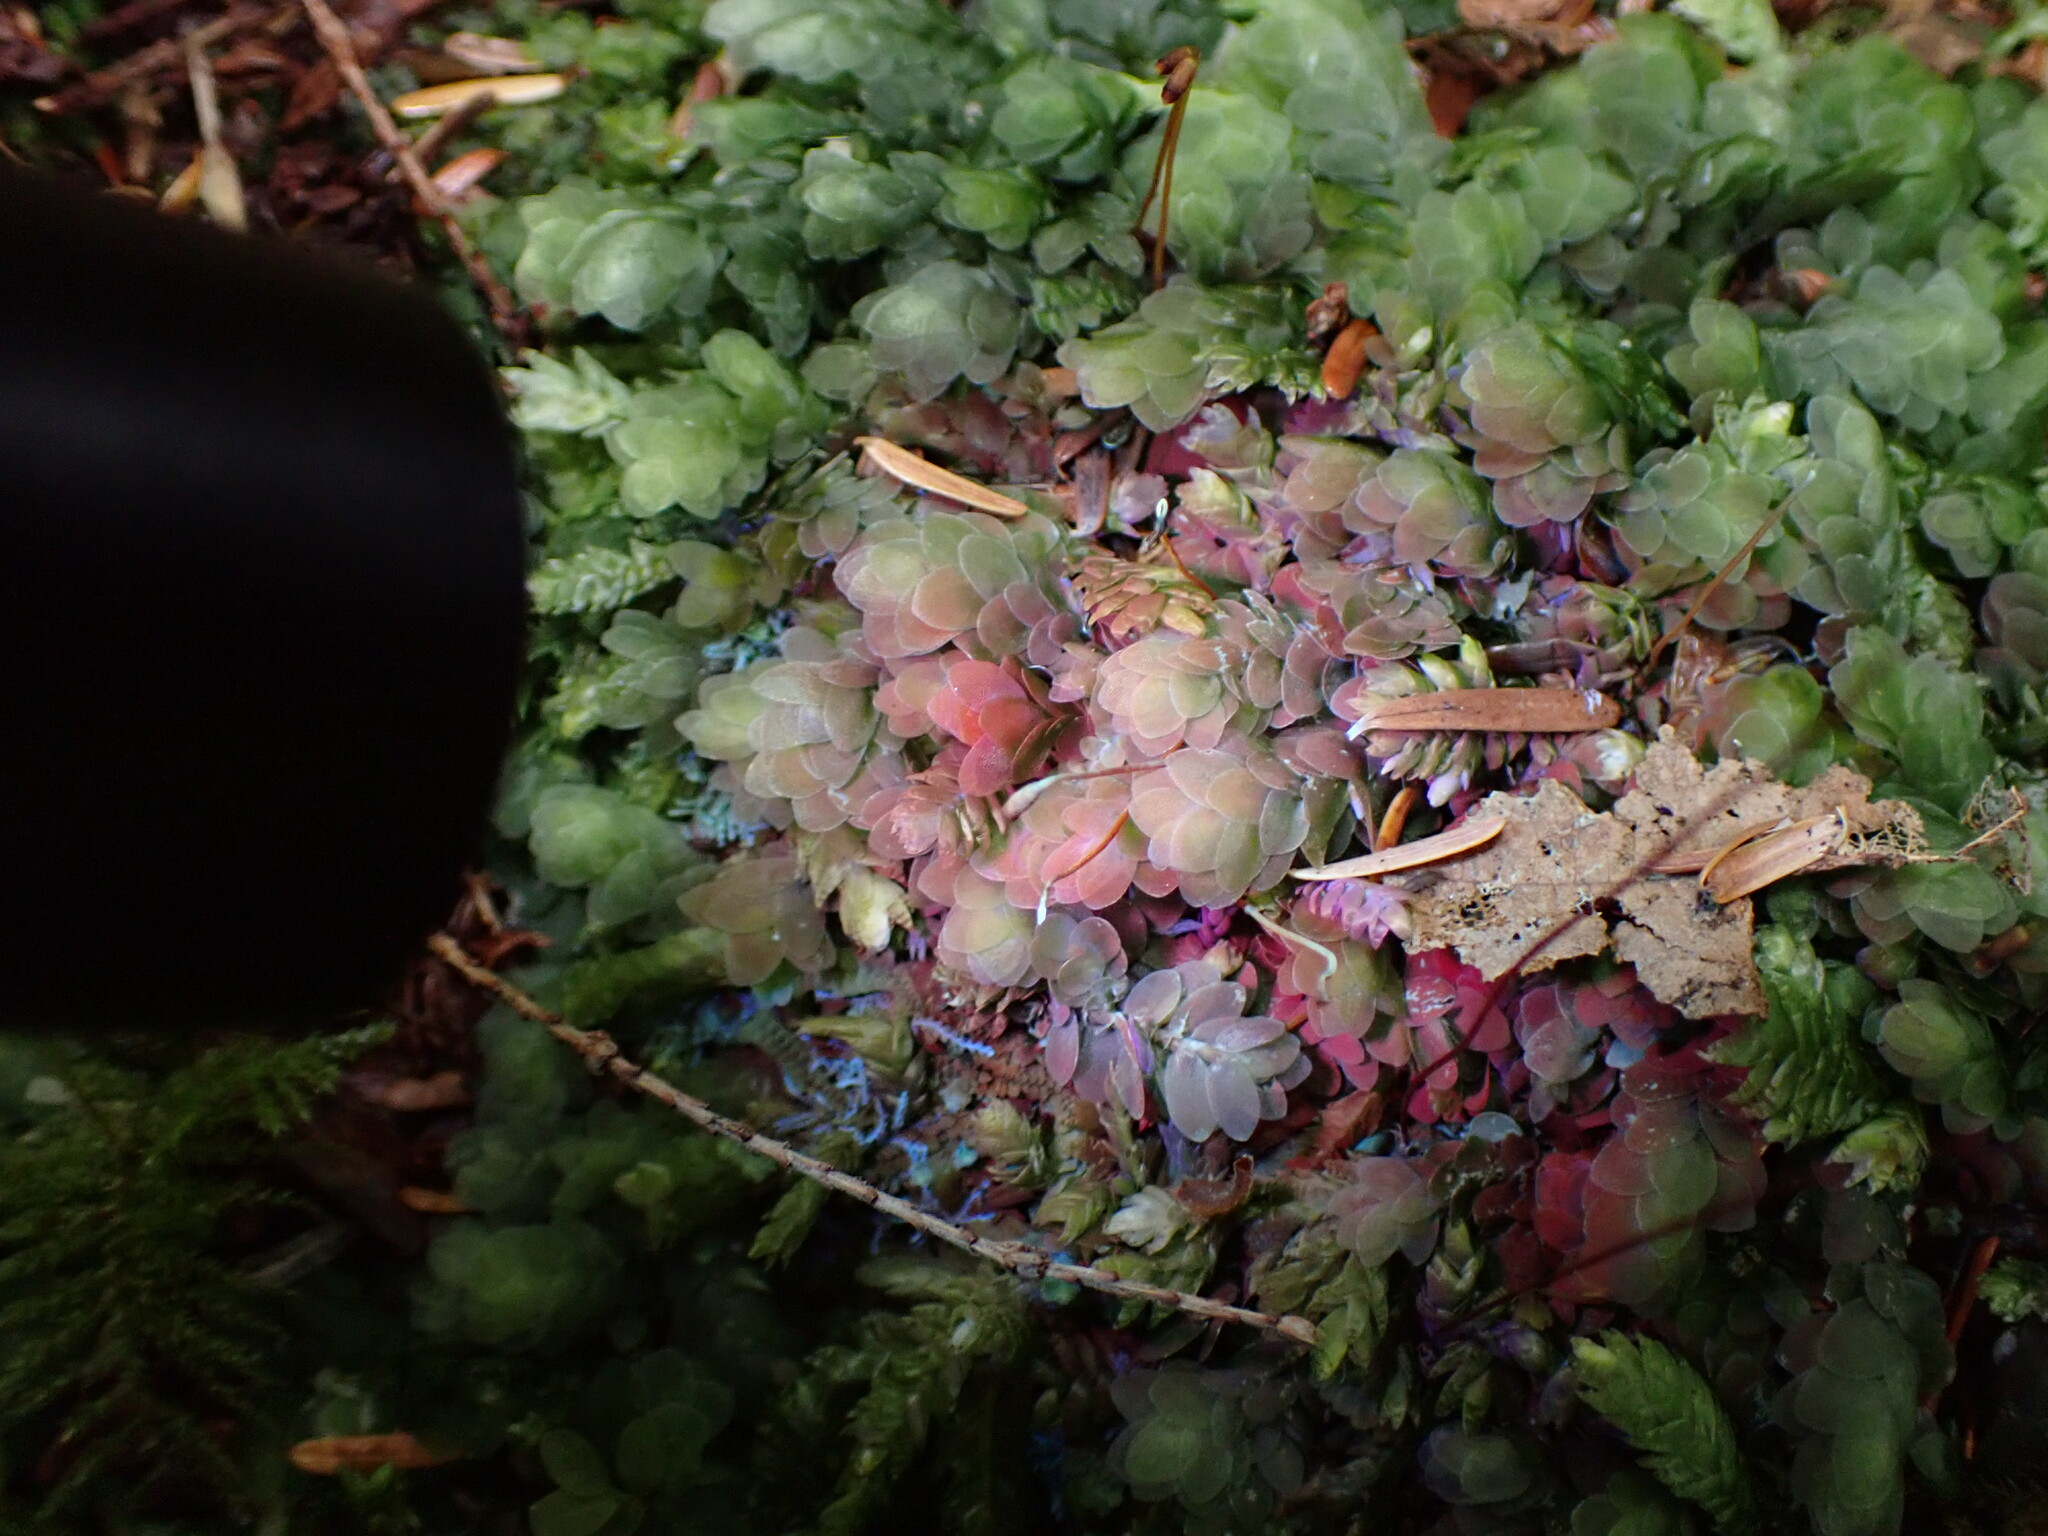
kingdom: Plantae
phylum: Bryophyta
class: Bryopsida
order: Hookeriales
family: Hookeriaceae
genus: Hookeria
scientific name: Hookeria lucens
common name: Shining hookeria
